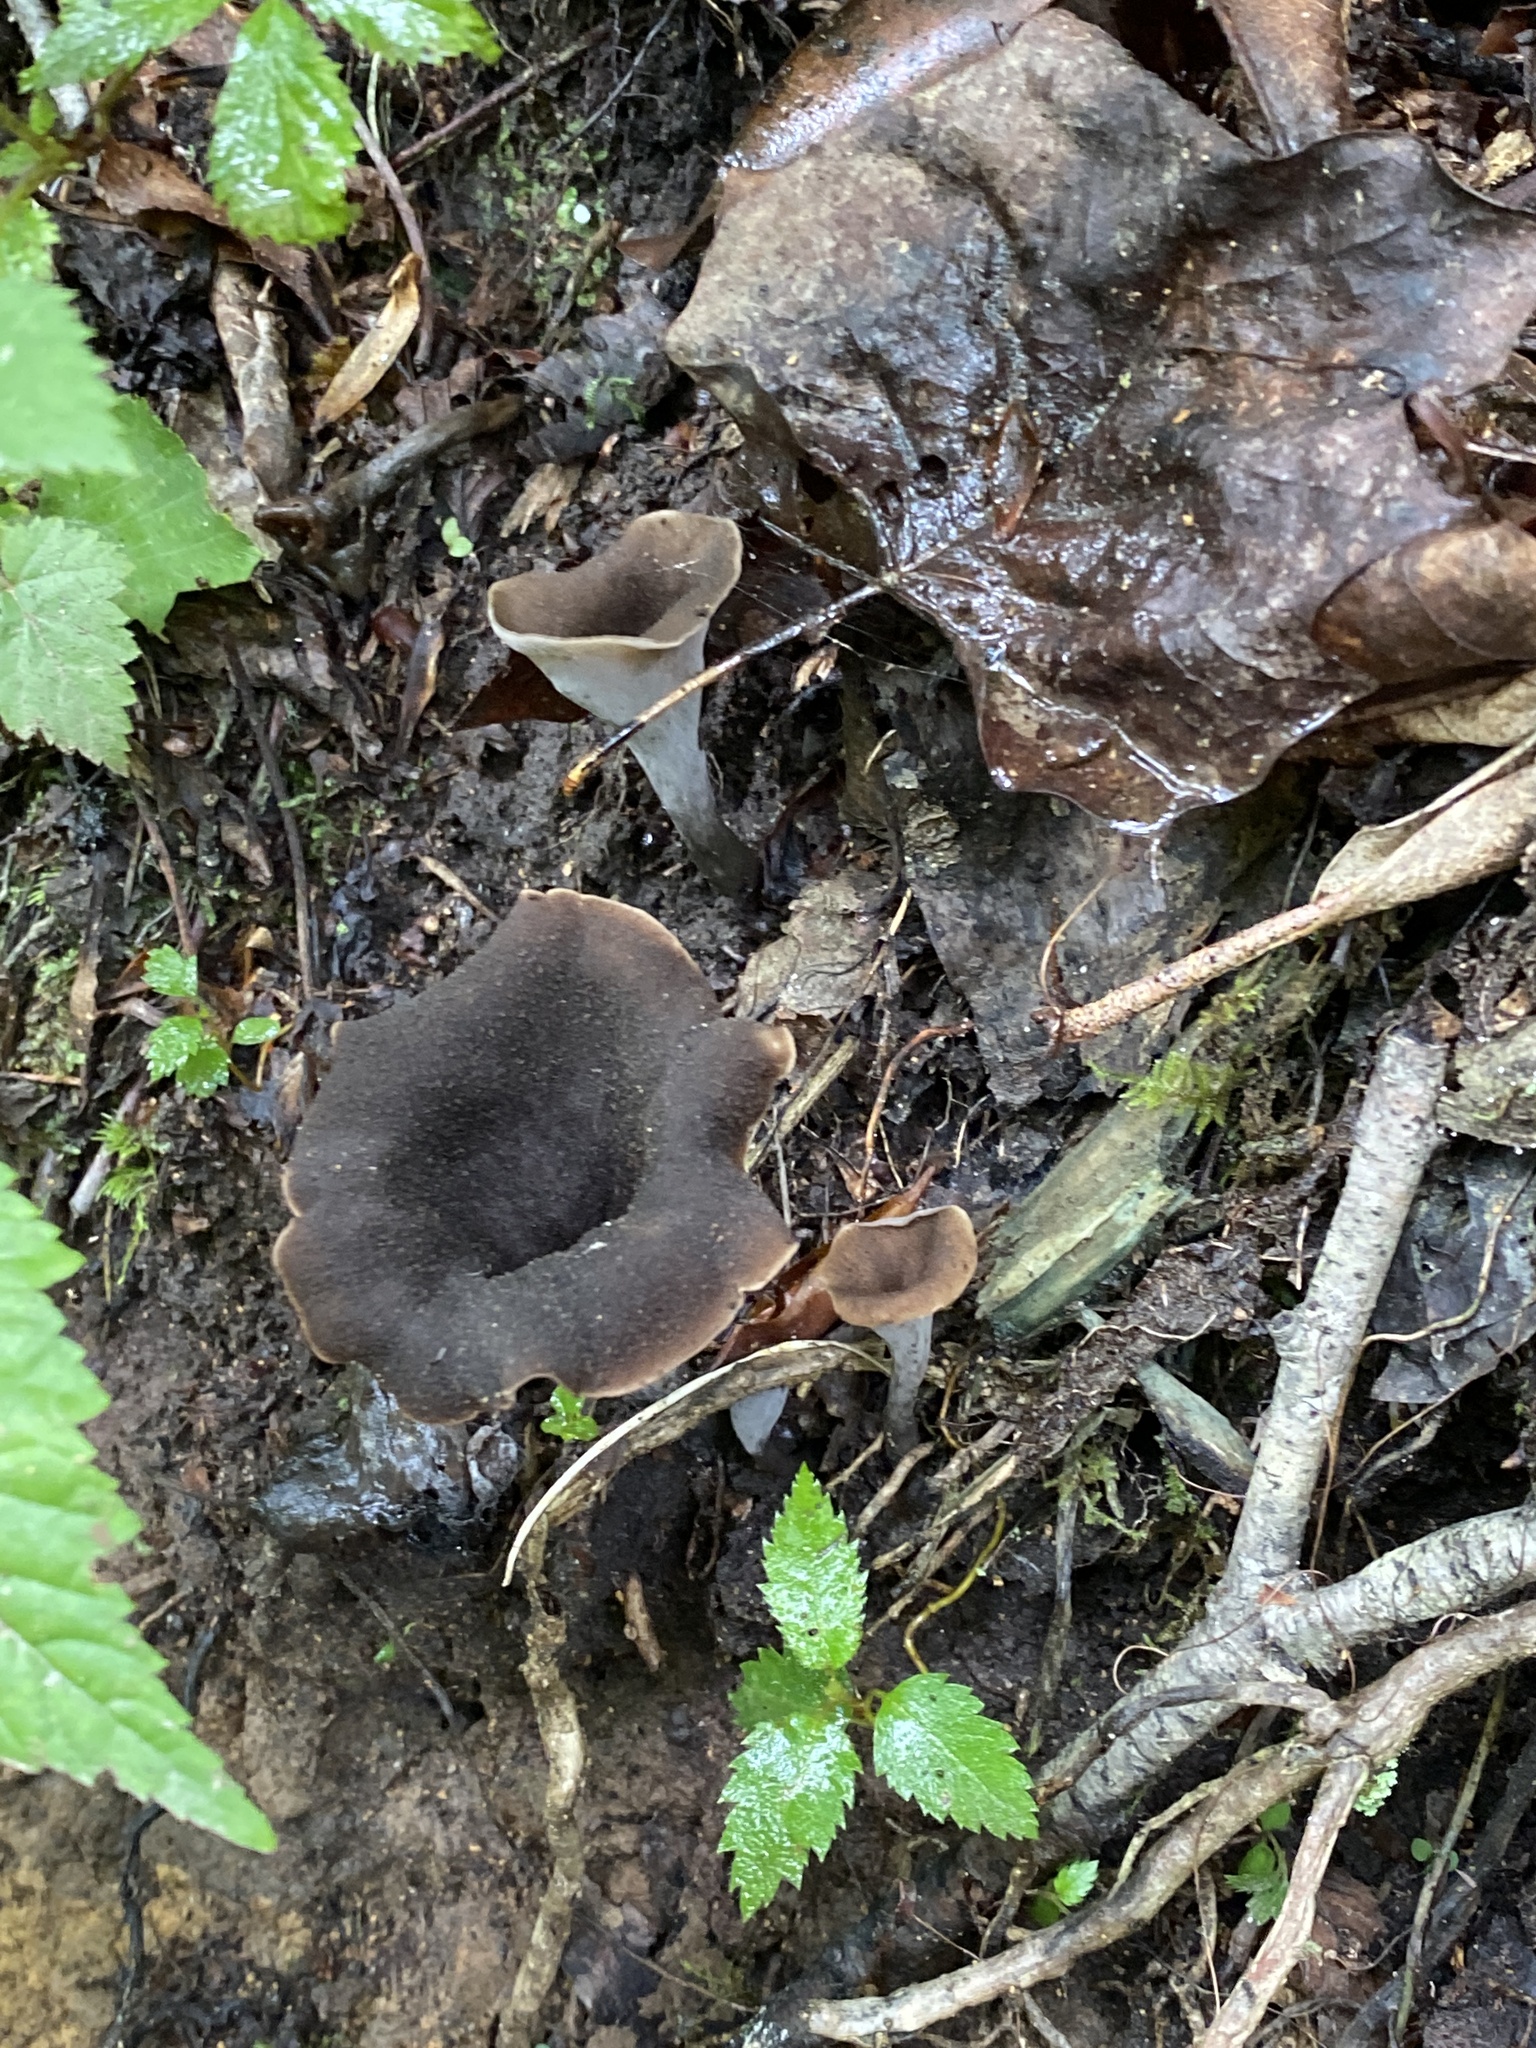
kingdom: Fungi
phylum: Basidiomycota
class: Agaricomycetes
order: Cantharellales
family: Hydnaceae
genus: Craterellus
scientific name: Craterellus cornucopioides
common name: Horn of plenty
